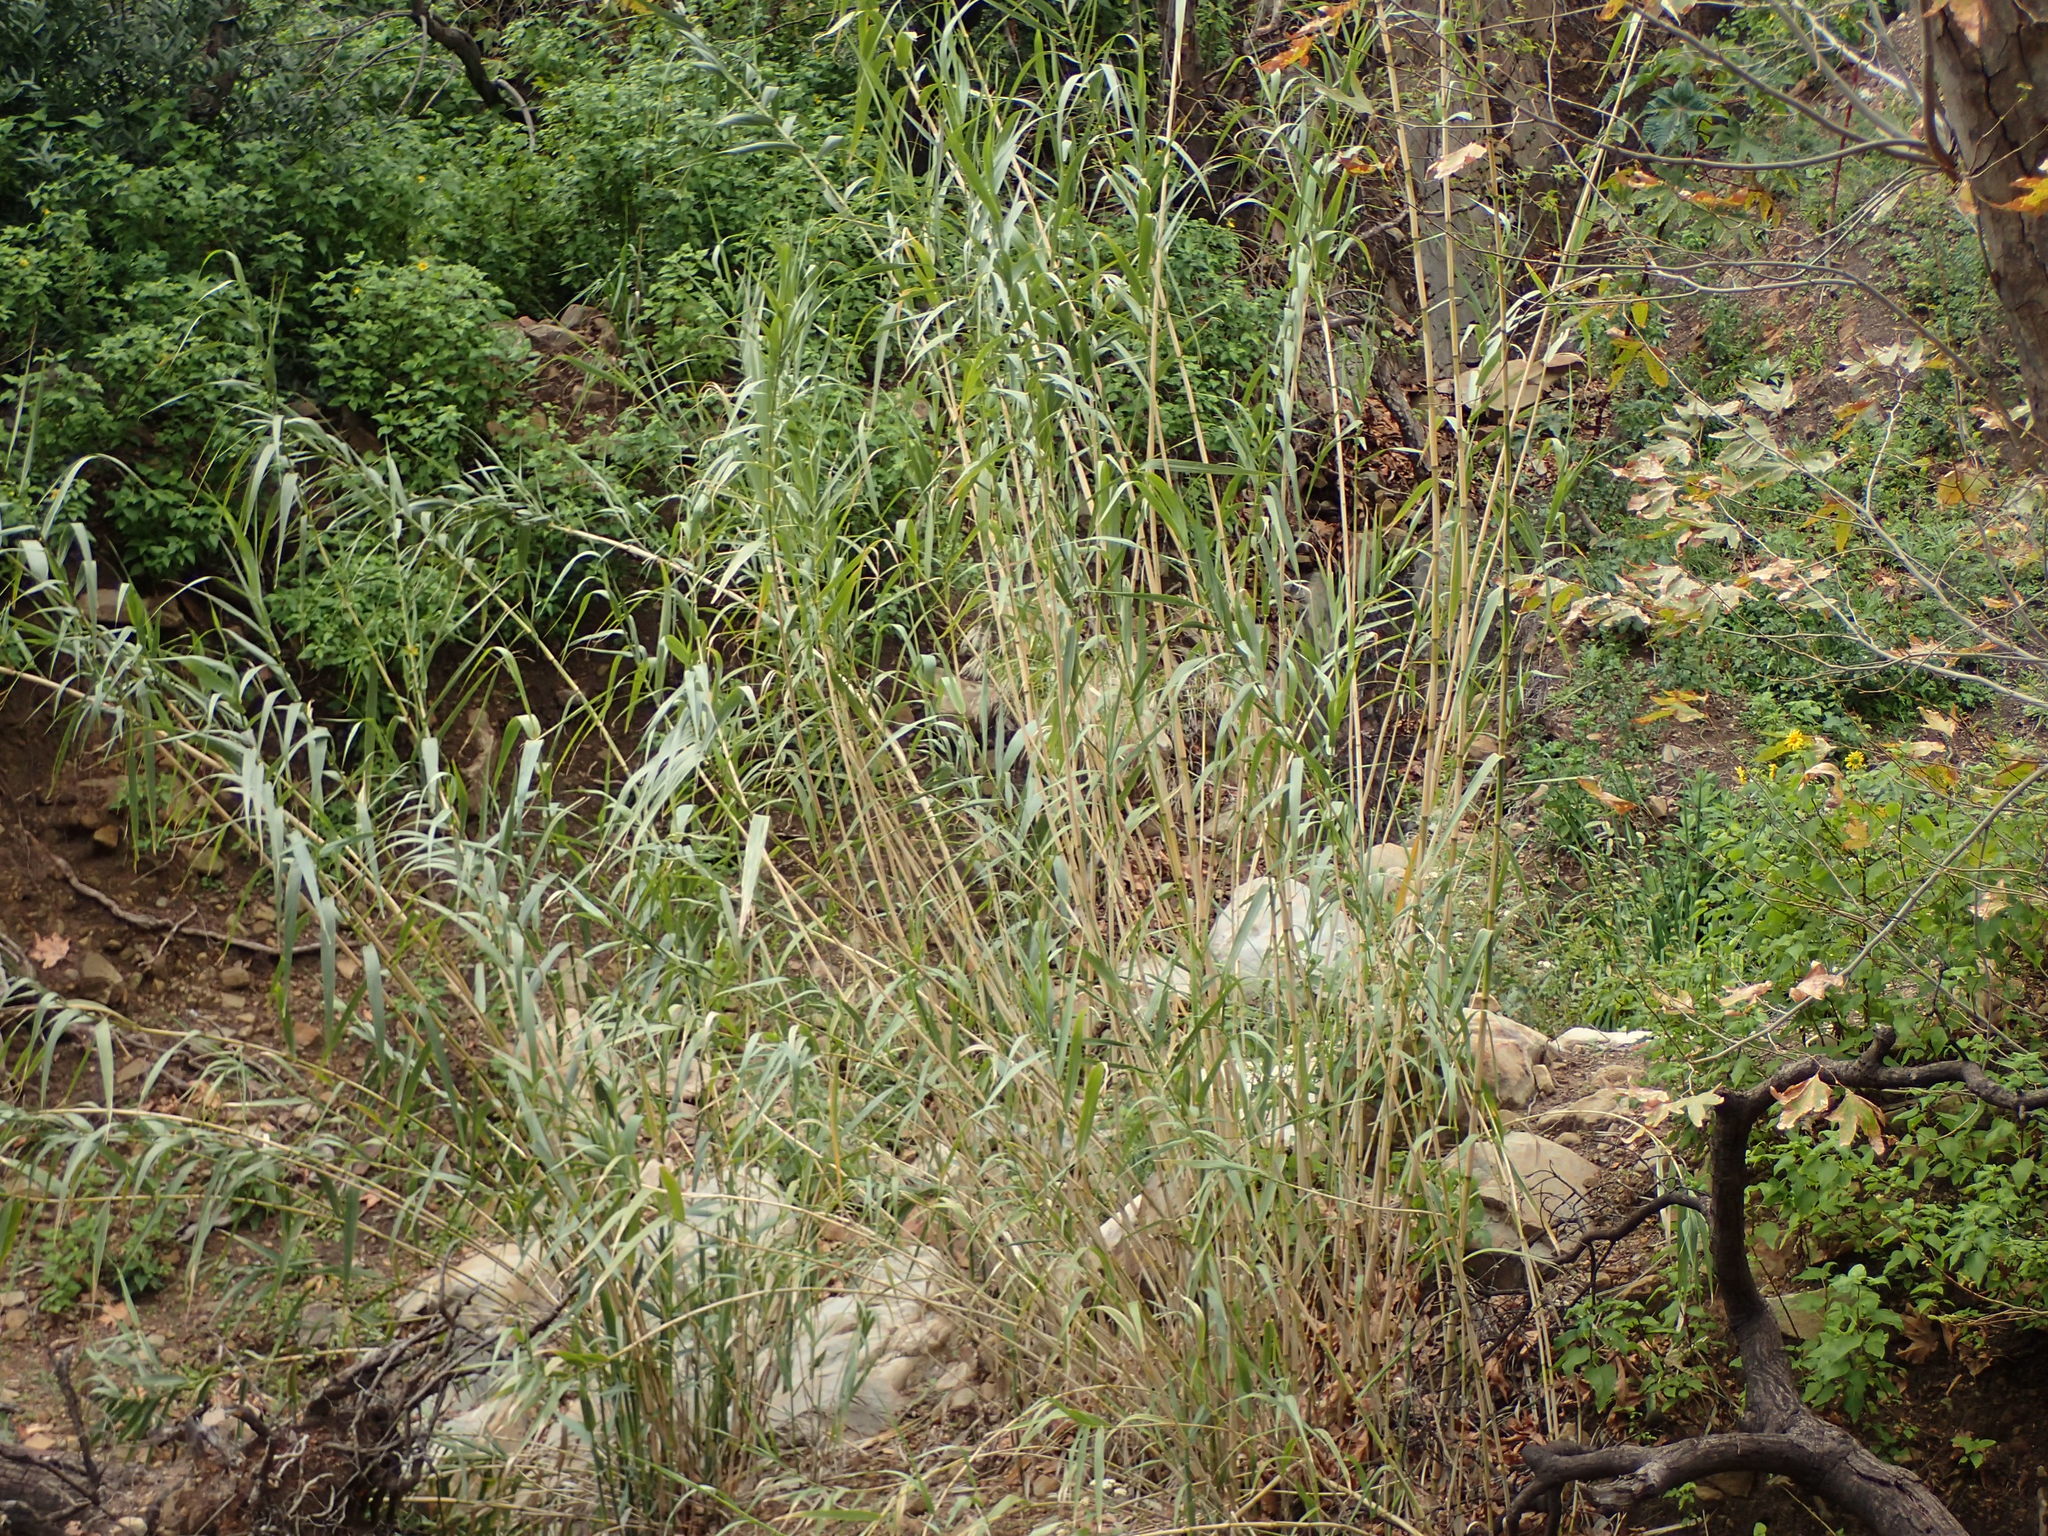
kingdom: Plantae
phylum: Tracheophyta
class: Liliopsida
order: Poales
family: Poaceae
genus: Arundo
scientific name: Arundo donax
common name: Giant reed
